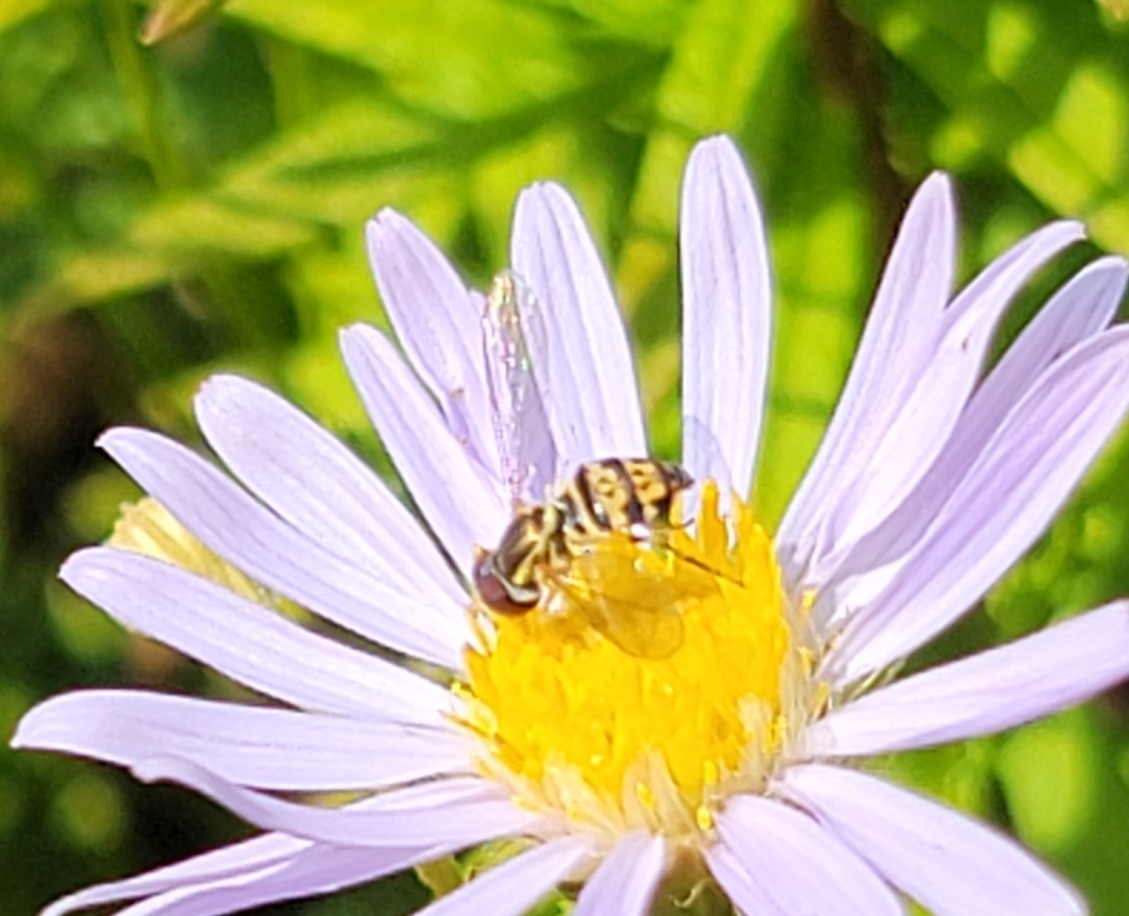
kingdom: Animalia
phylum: Arthropoda
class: Insecta
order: Diptera
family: Syrphidae
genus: Toxomerus
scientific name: Toxomerus geminatus
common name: Eastern calligrapher
